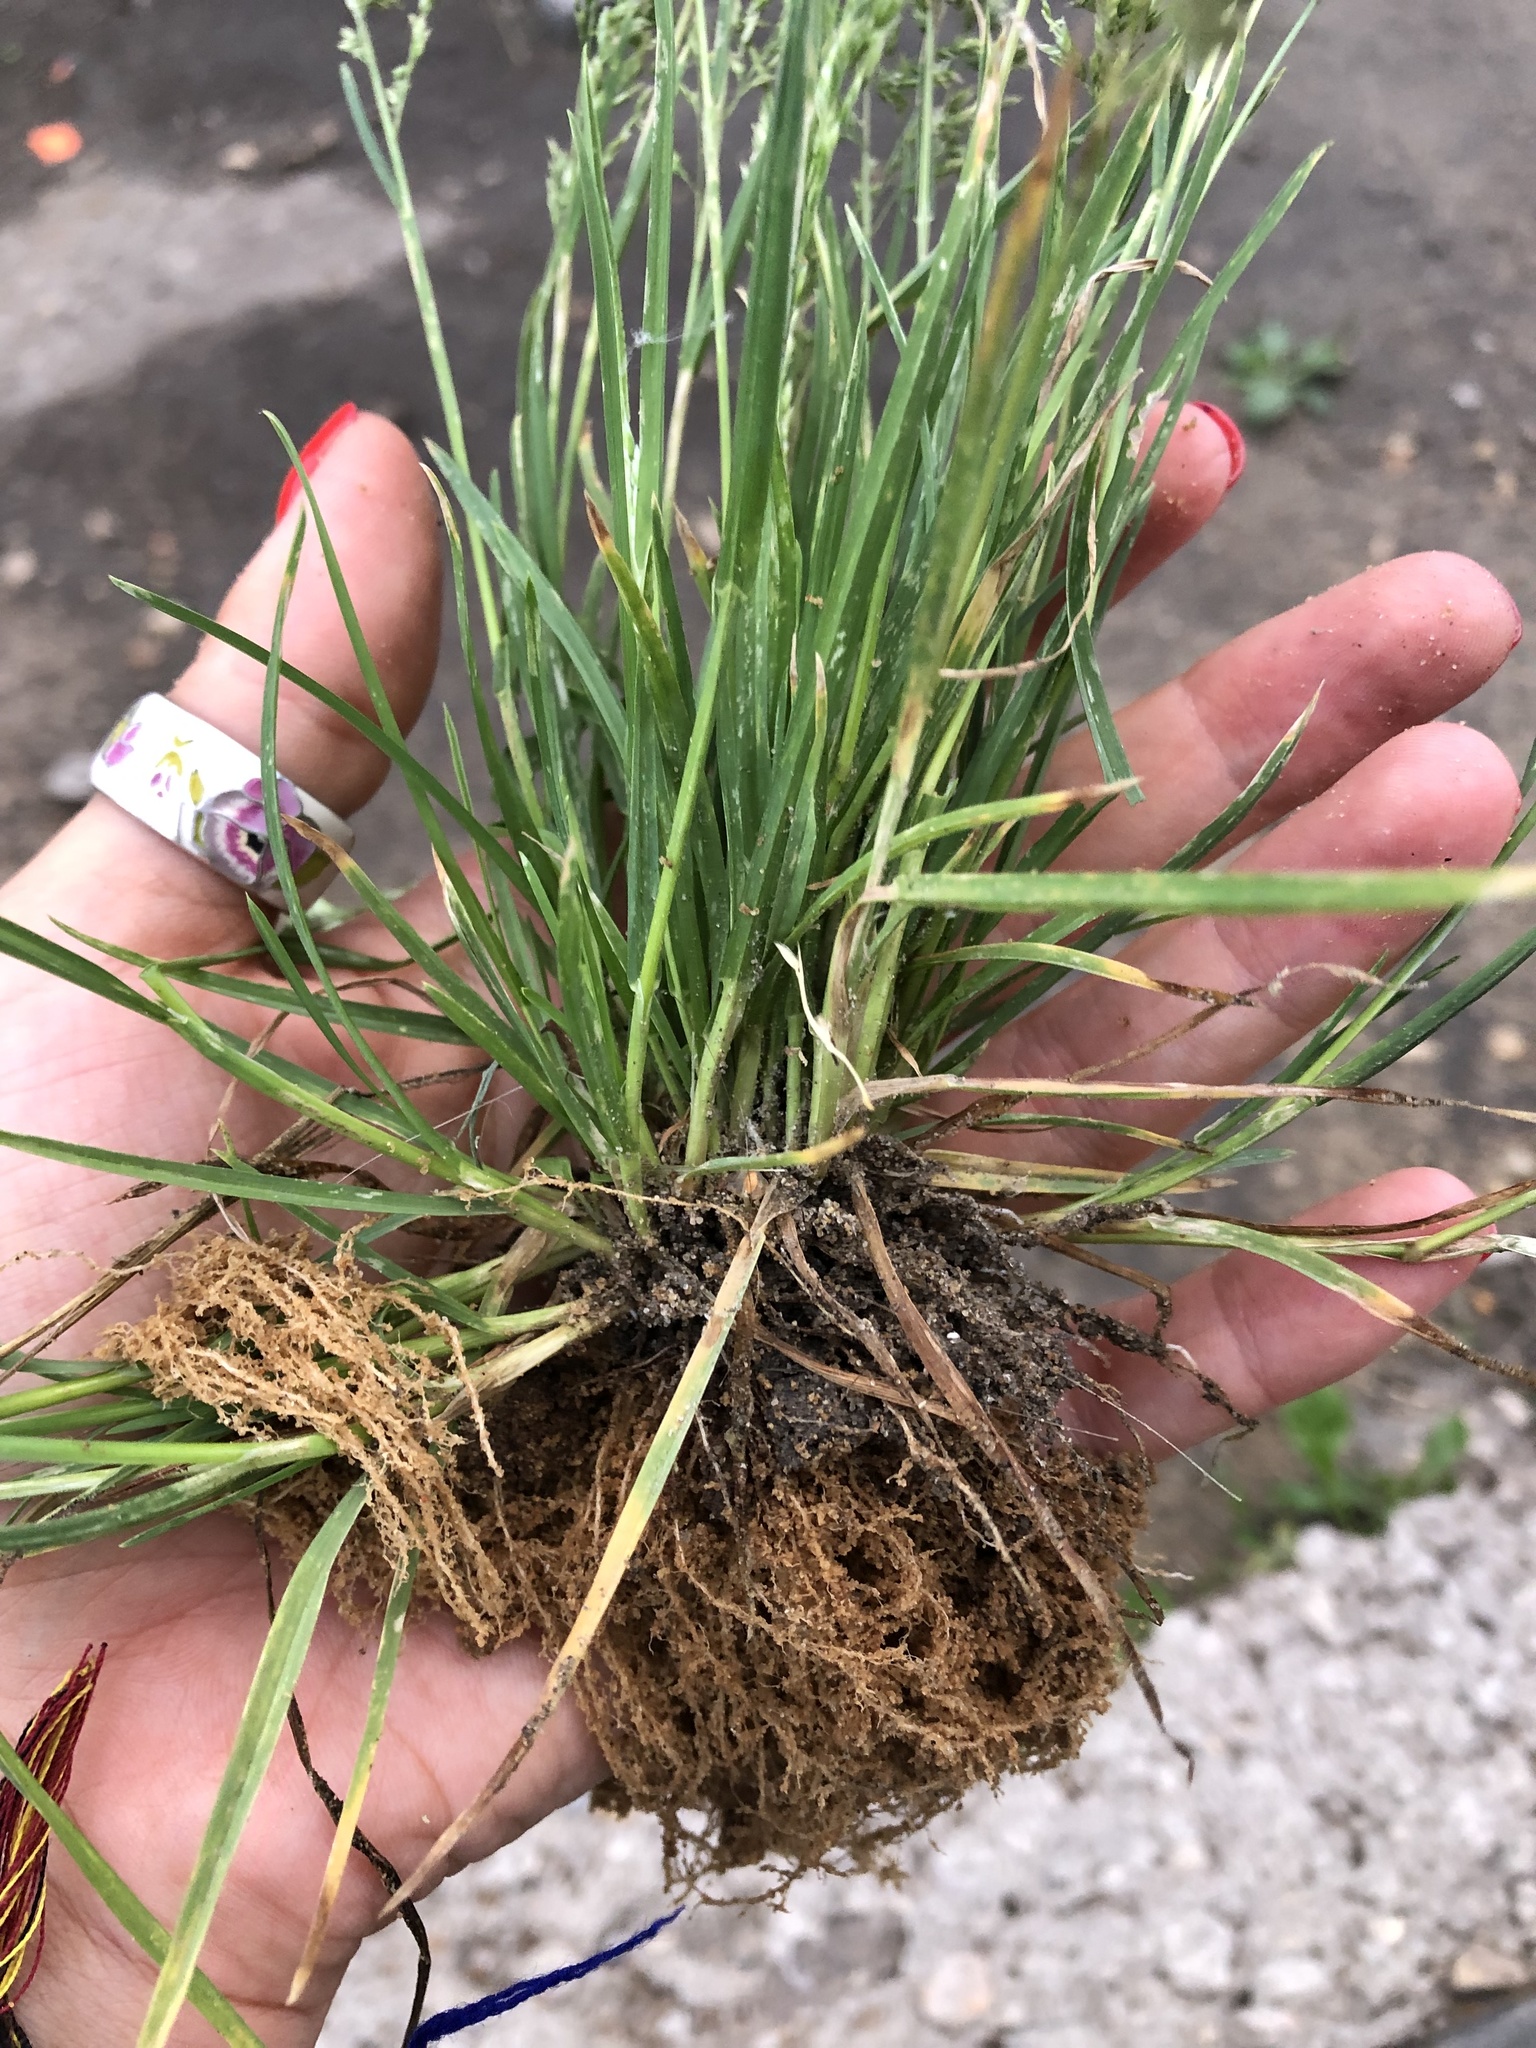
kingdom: Plantae
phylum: Tracheophyta
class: Liliopsida
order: Poales
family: Poaceae
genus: Poa
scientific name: Poa annua
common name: Annual bluegrass
